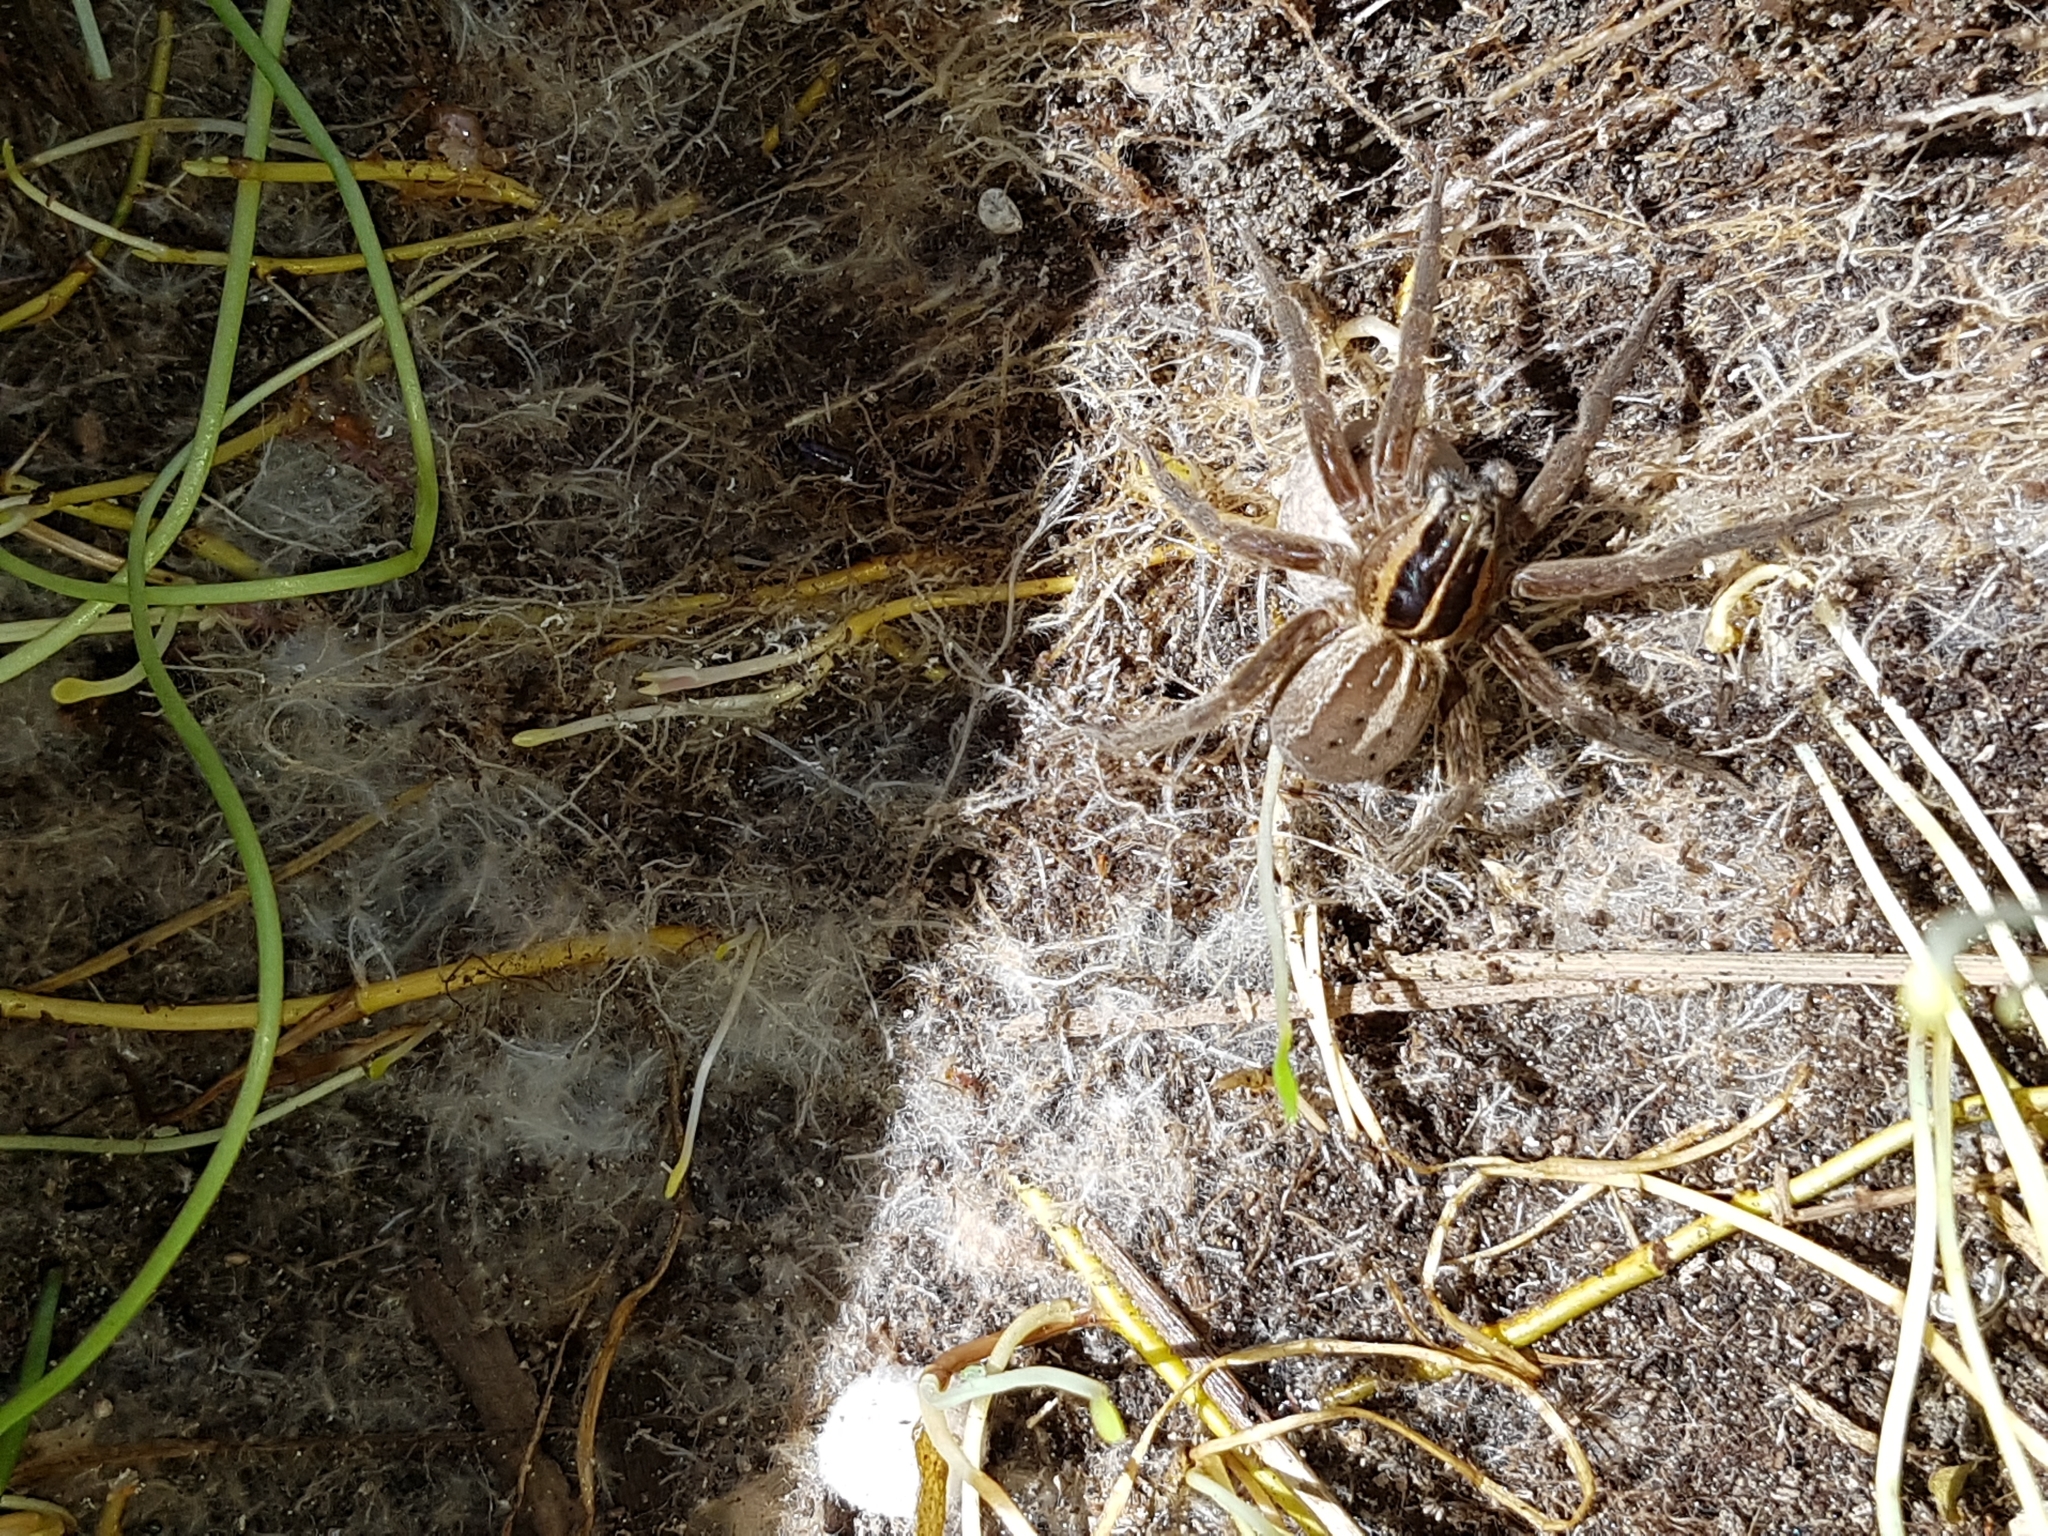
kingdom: Animalia
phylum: Arthropoda
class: Arachnida
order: Araneae
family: Pisauridae
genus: Dolomedes
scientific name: Dolomedes minor
